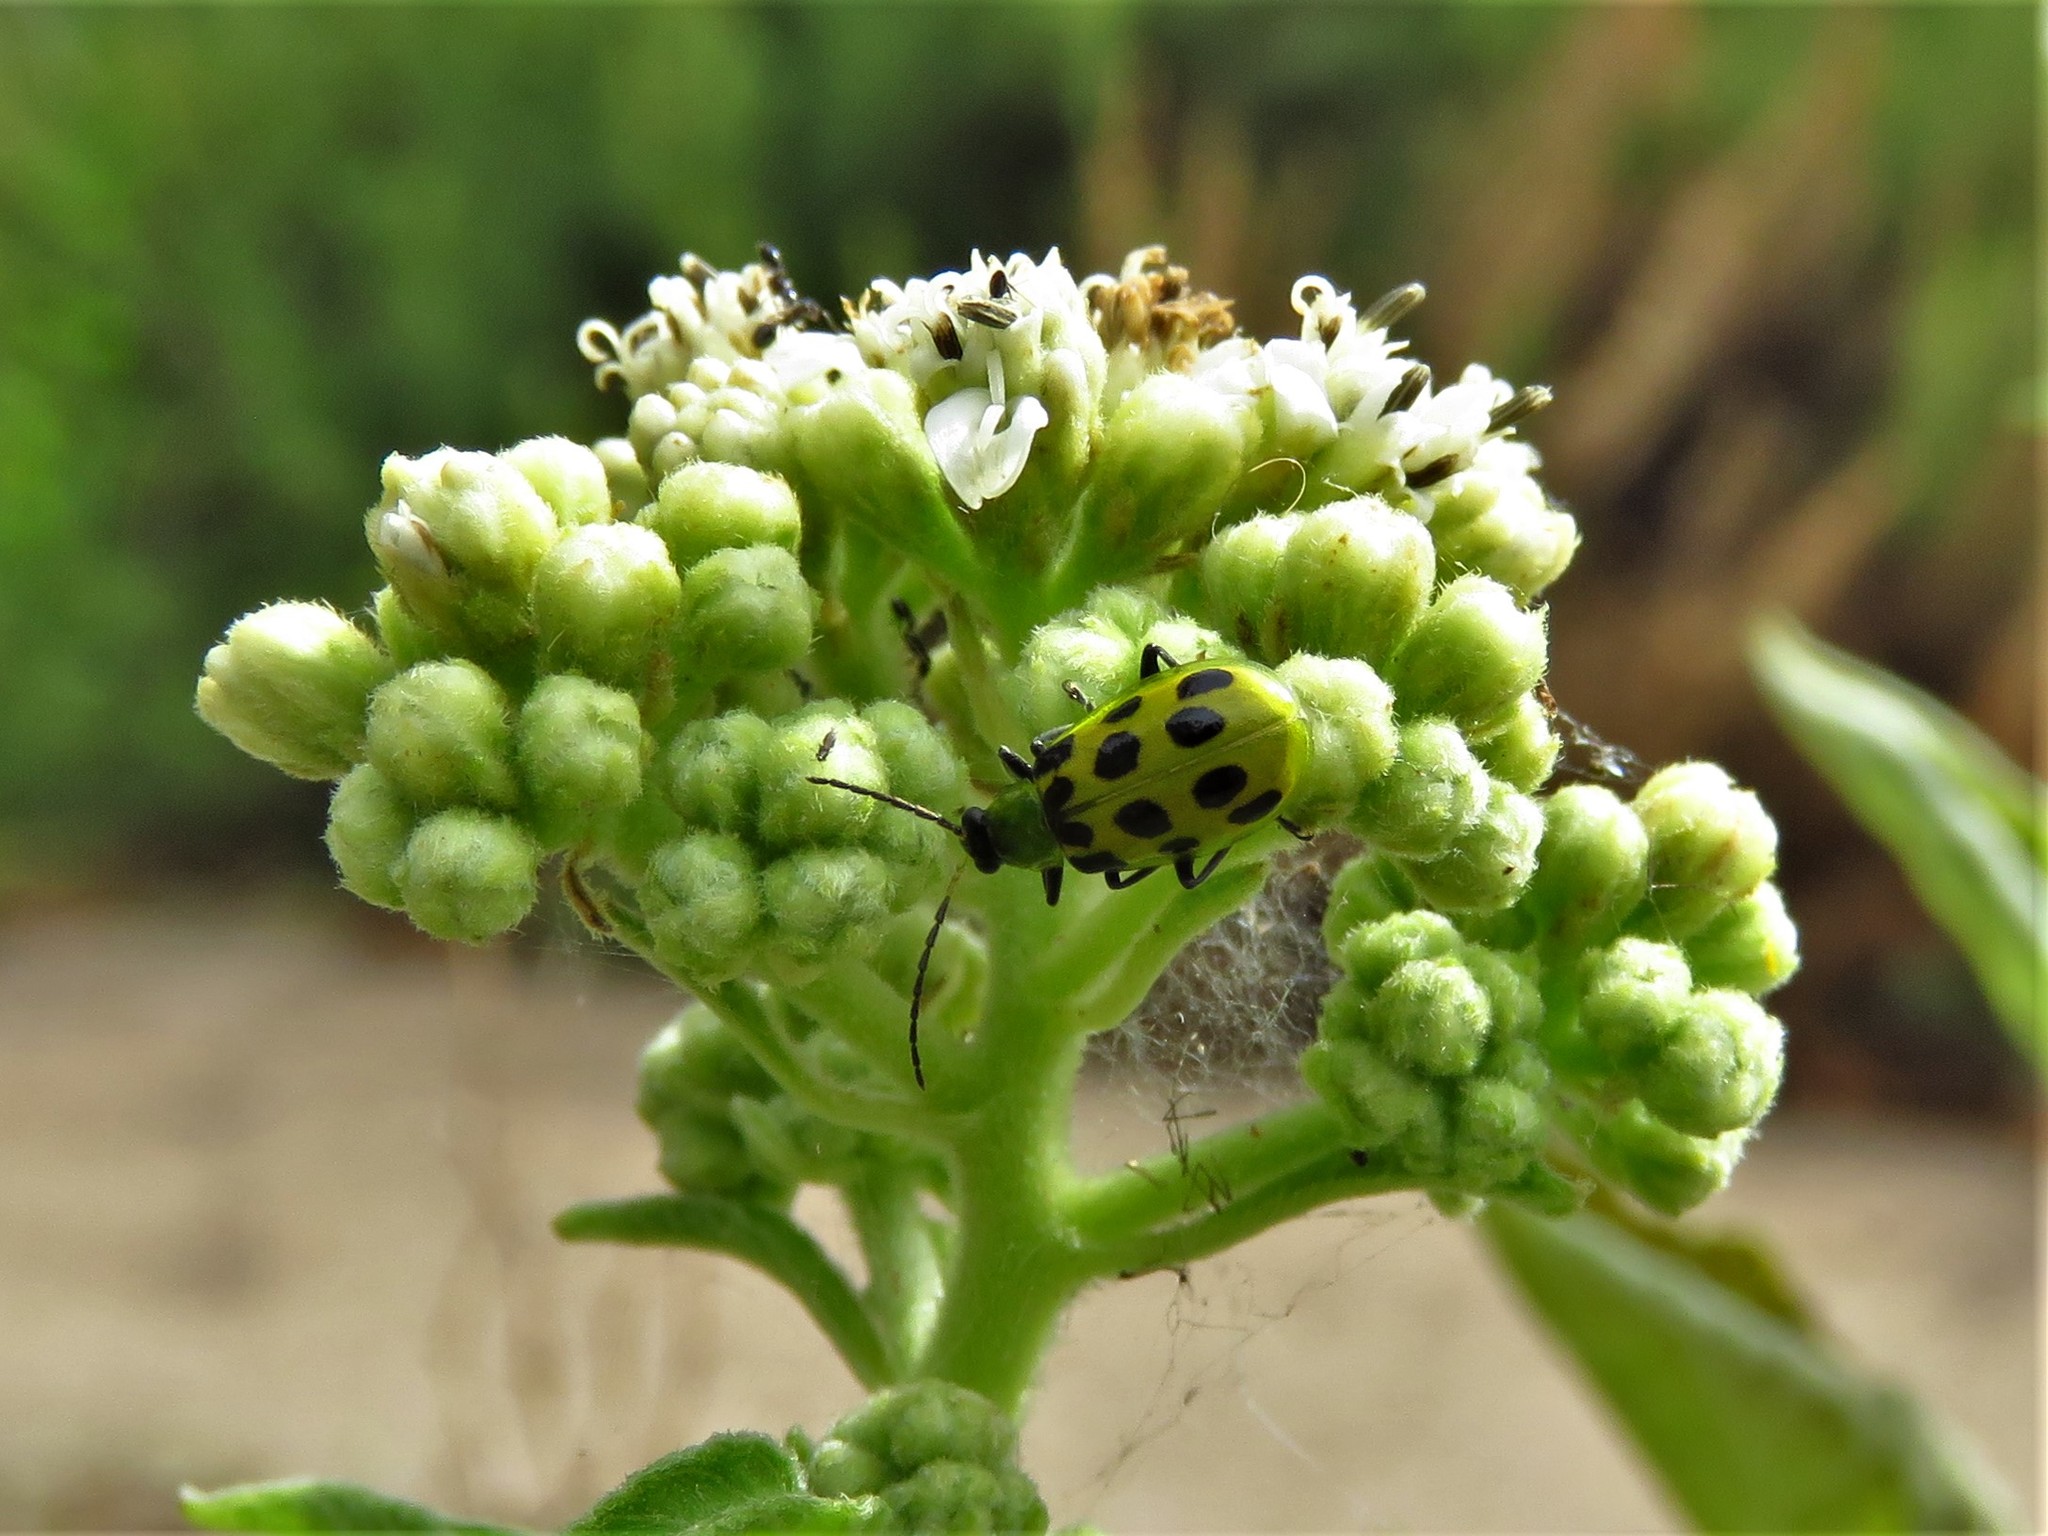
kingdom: Animalia
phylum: Arthropoda
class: Insecta
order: Coleoptera
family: Chrysomelidae
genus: Diabrotica
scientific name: Diabrotica undecimpunctata
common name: Spotted cucumber beetle
